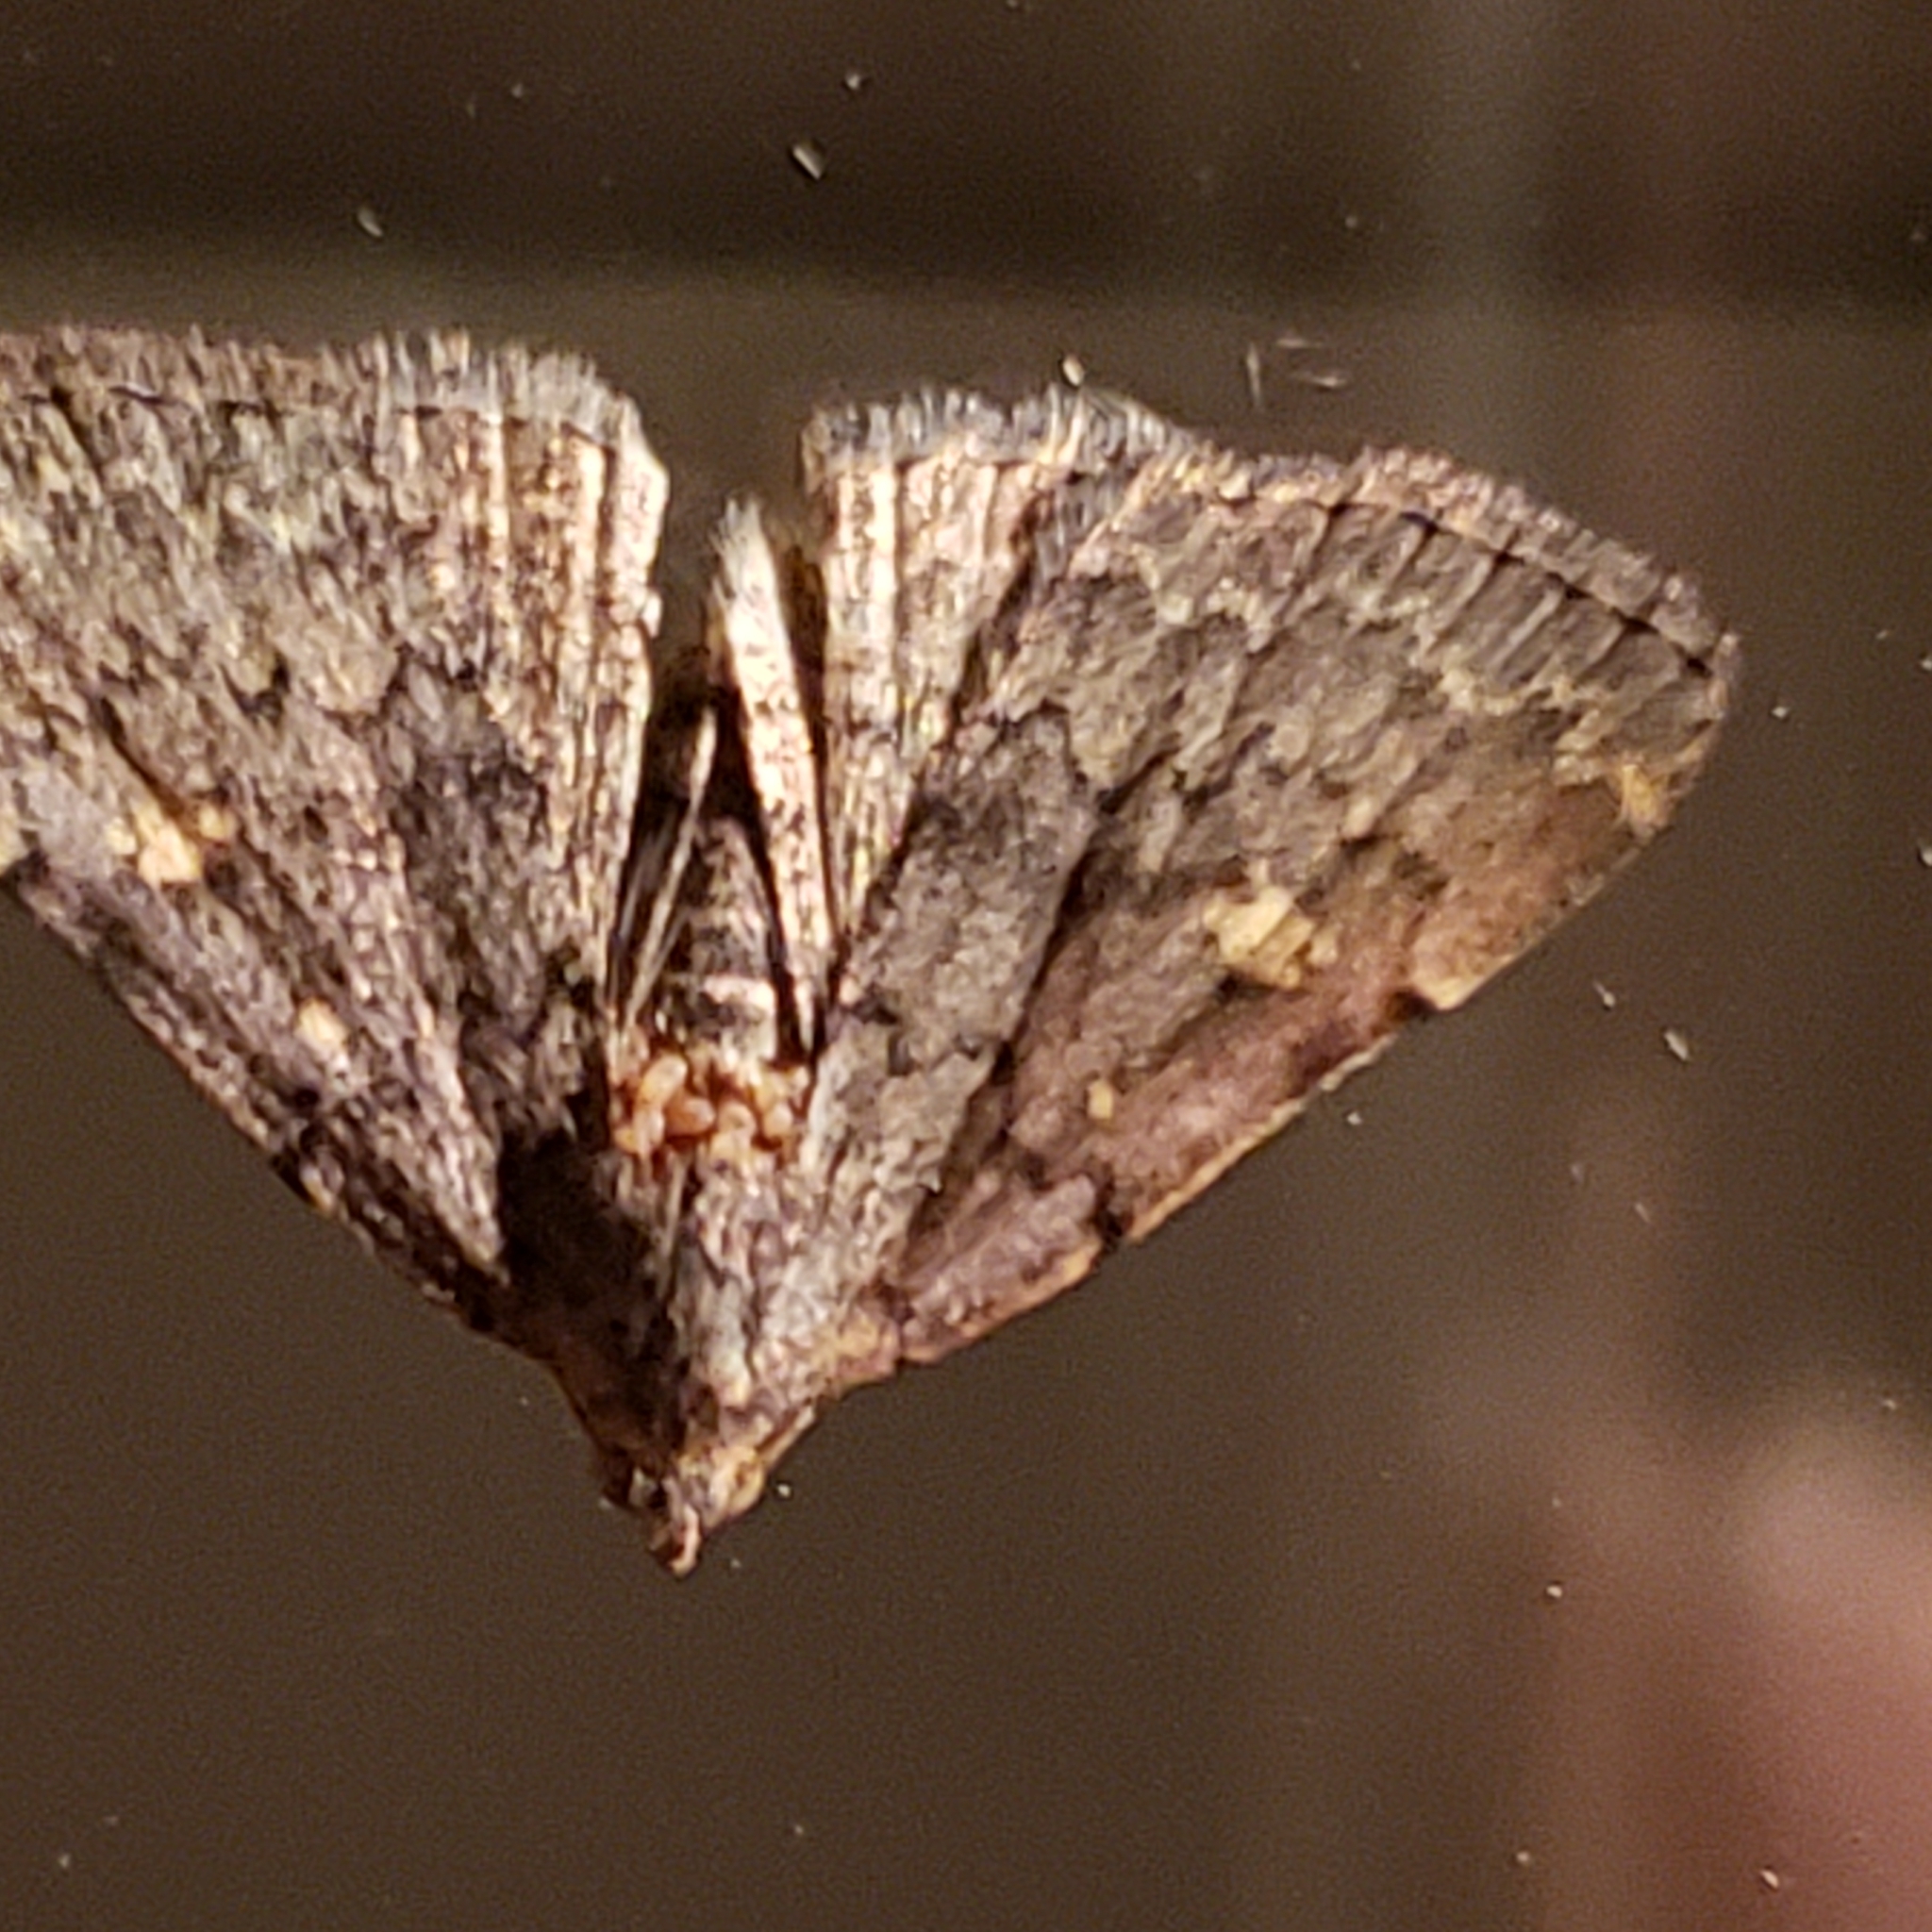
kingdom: Animalia
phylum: Arthropoda
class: Insecta
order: Lepidoptera
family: Erebidae
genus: Idia
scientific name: Idia aemula
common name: Common idia moth
